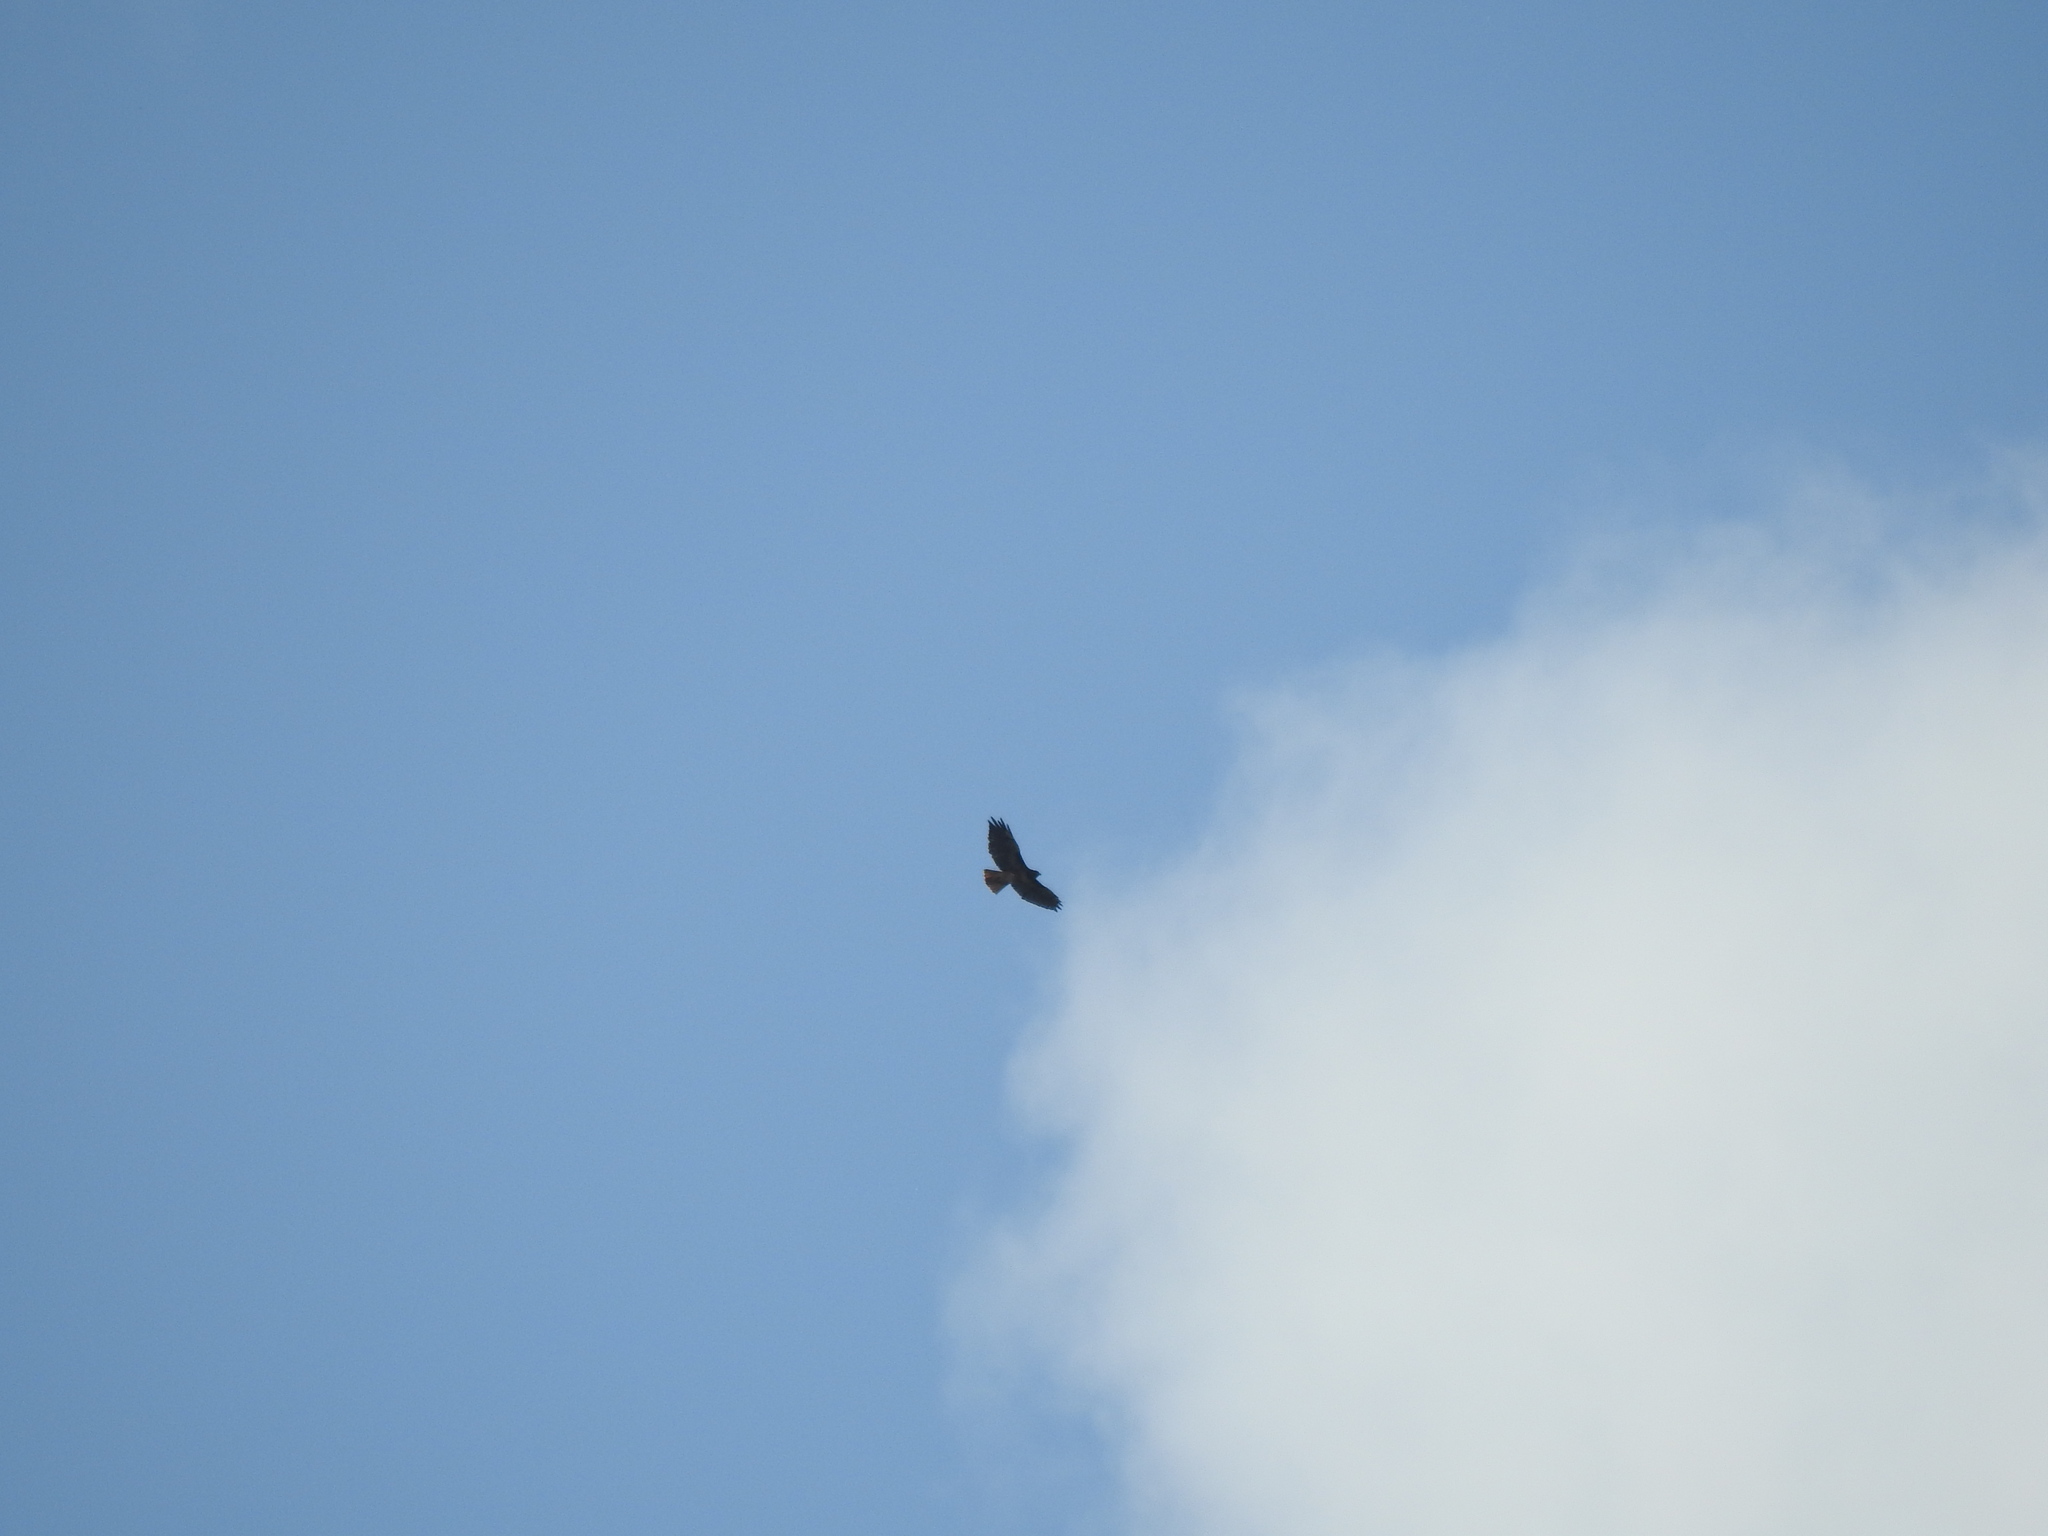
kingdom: Animalia
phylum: Chordata
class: Aves
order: Accipitriformes
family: Accipitridae
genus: Buteo
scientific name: Buteo jamaicensis
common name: Red-tailed hawk
